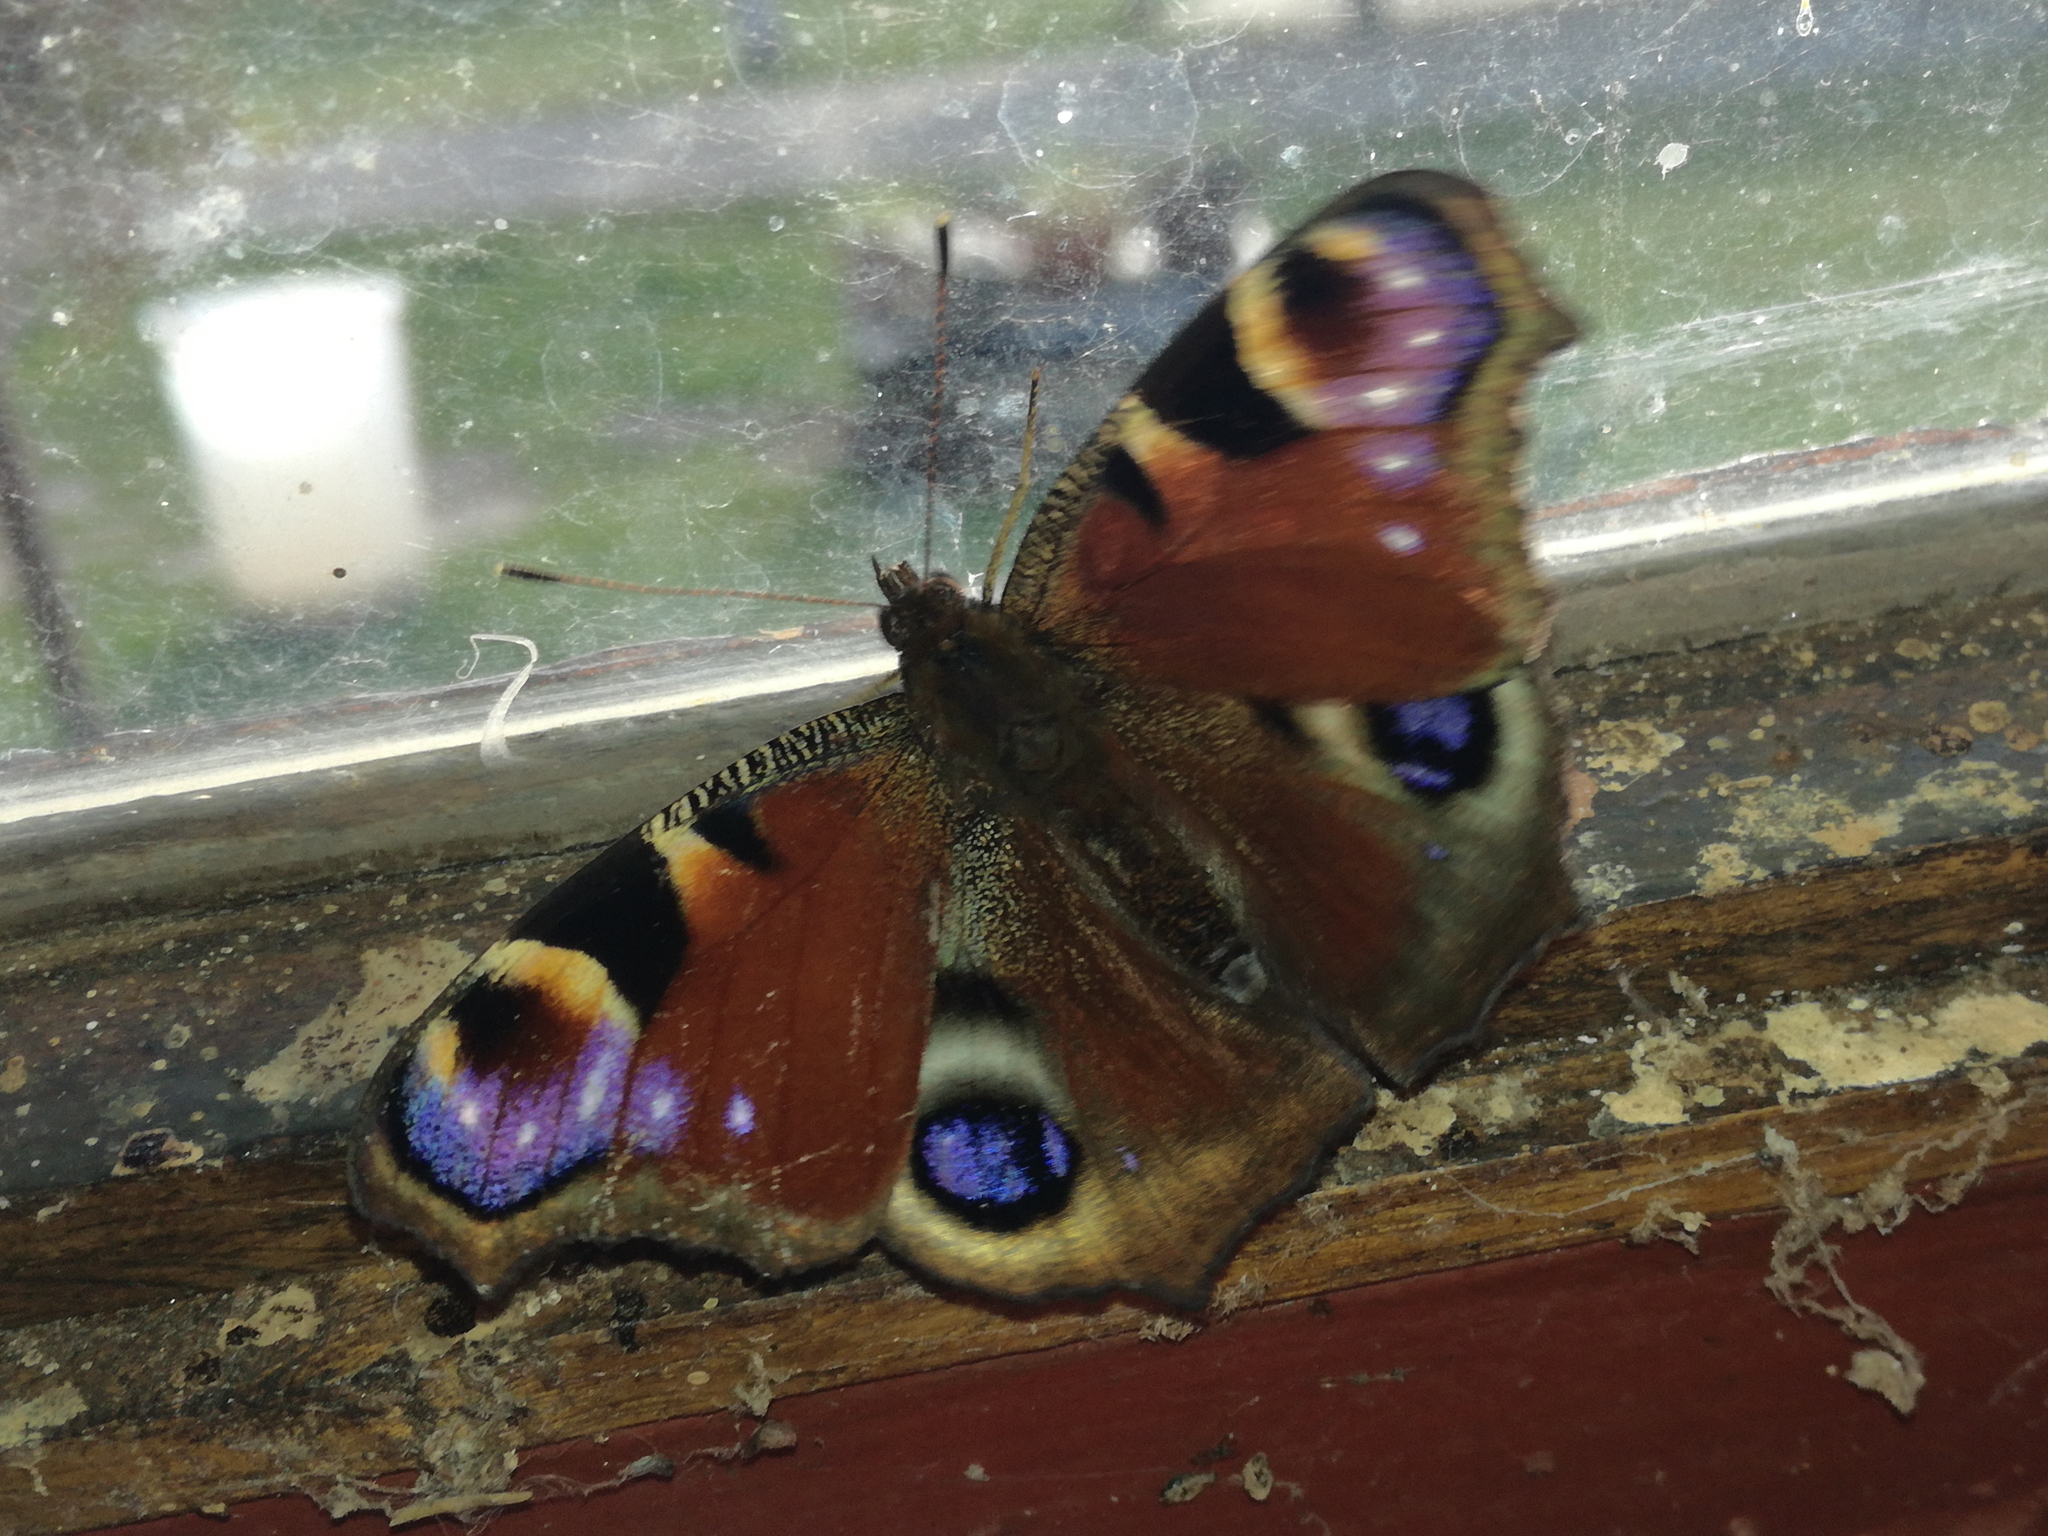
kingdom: Animalia
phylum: Arthropoda
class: Insecta
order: Lepidoptera
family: Nymphalidae
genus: Aglais
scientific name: Aglais io
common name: Peacock
